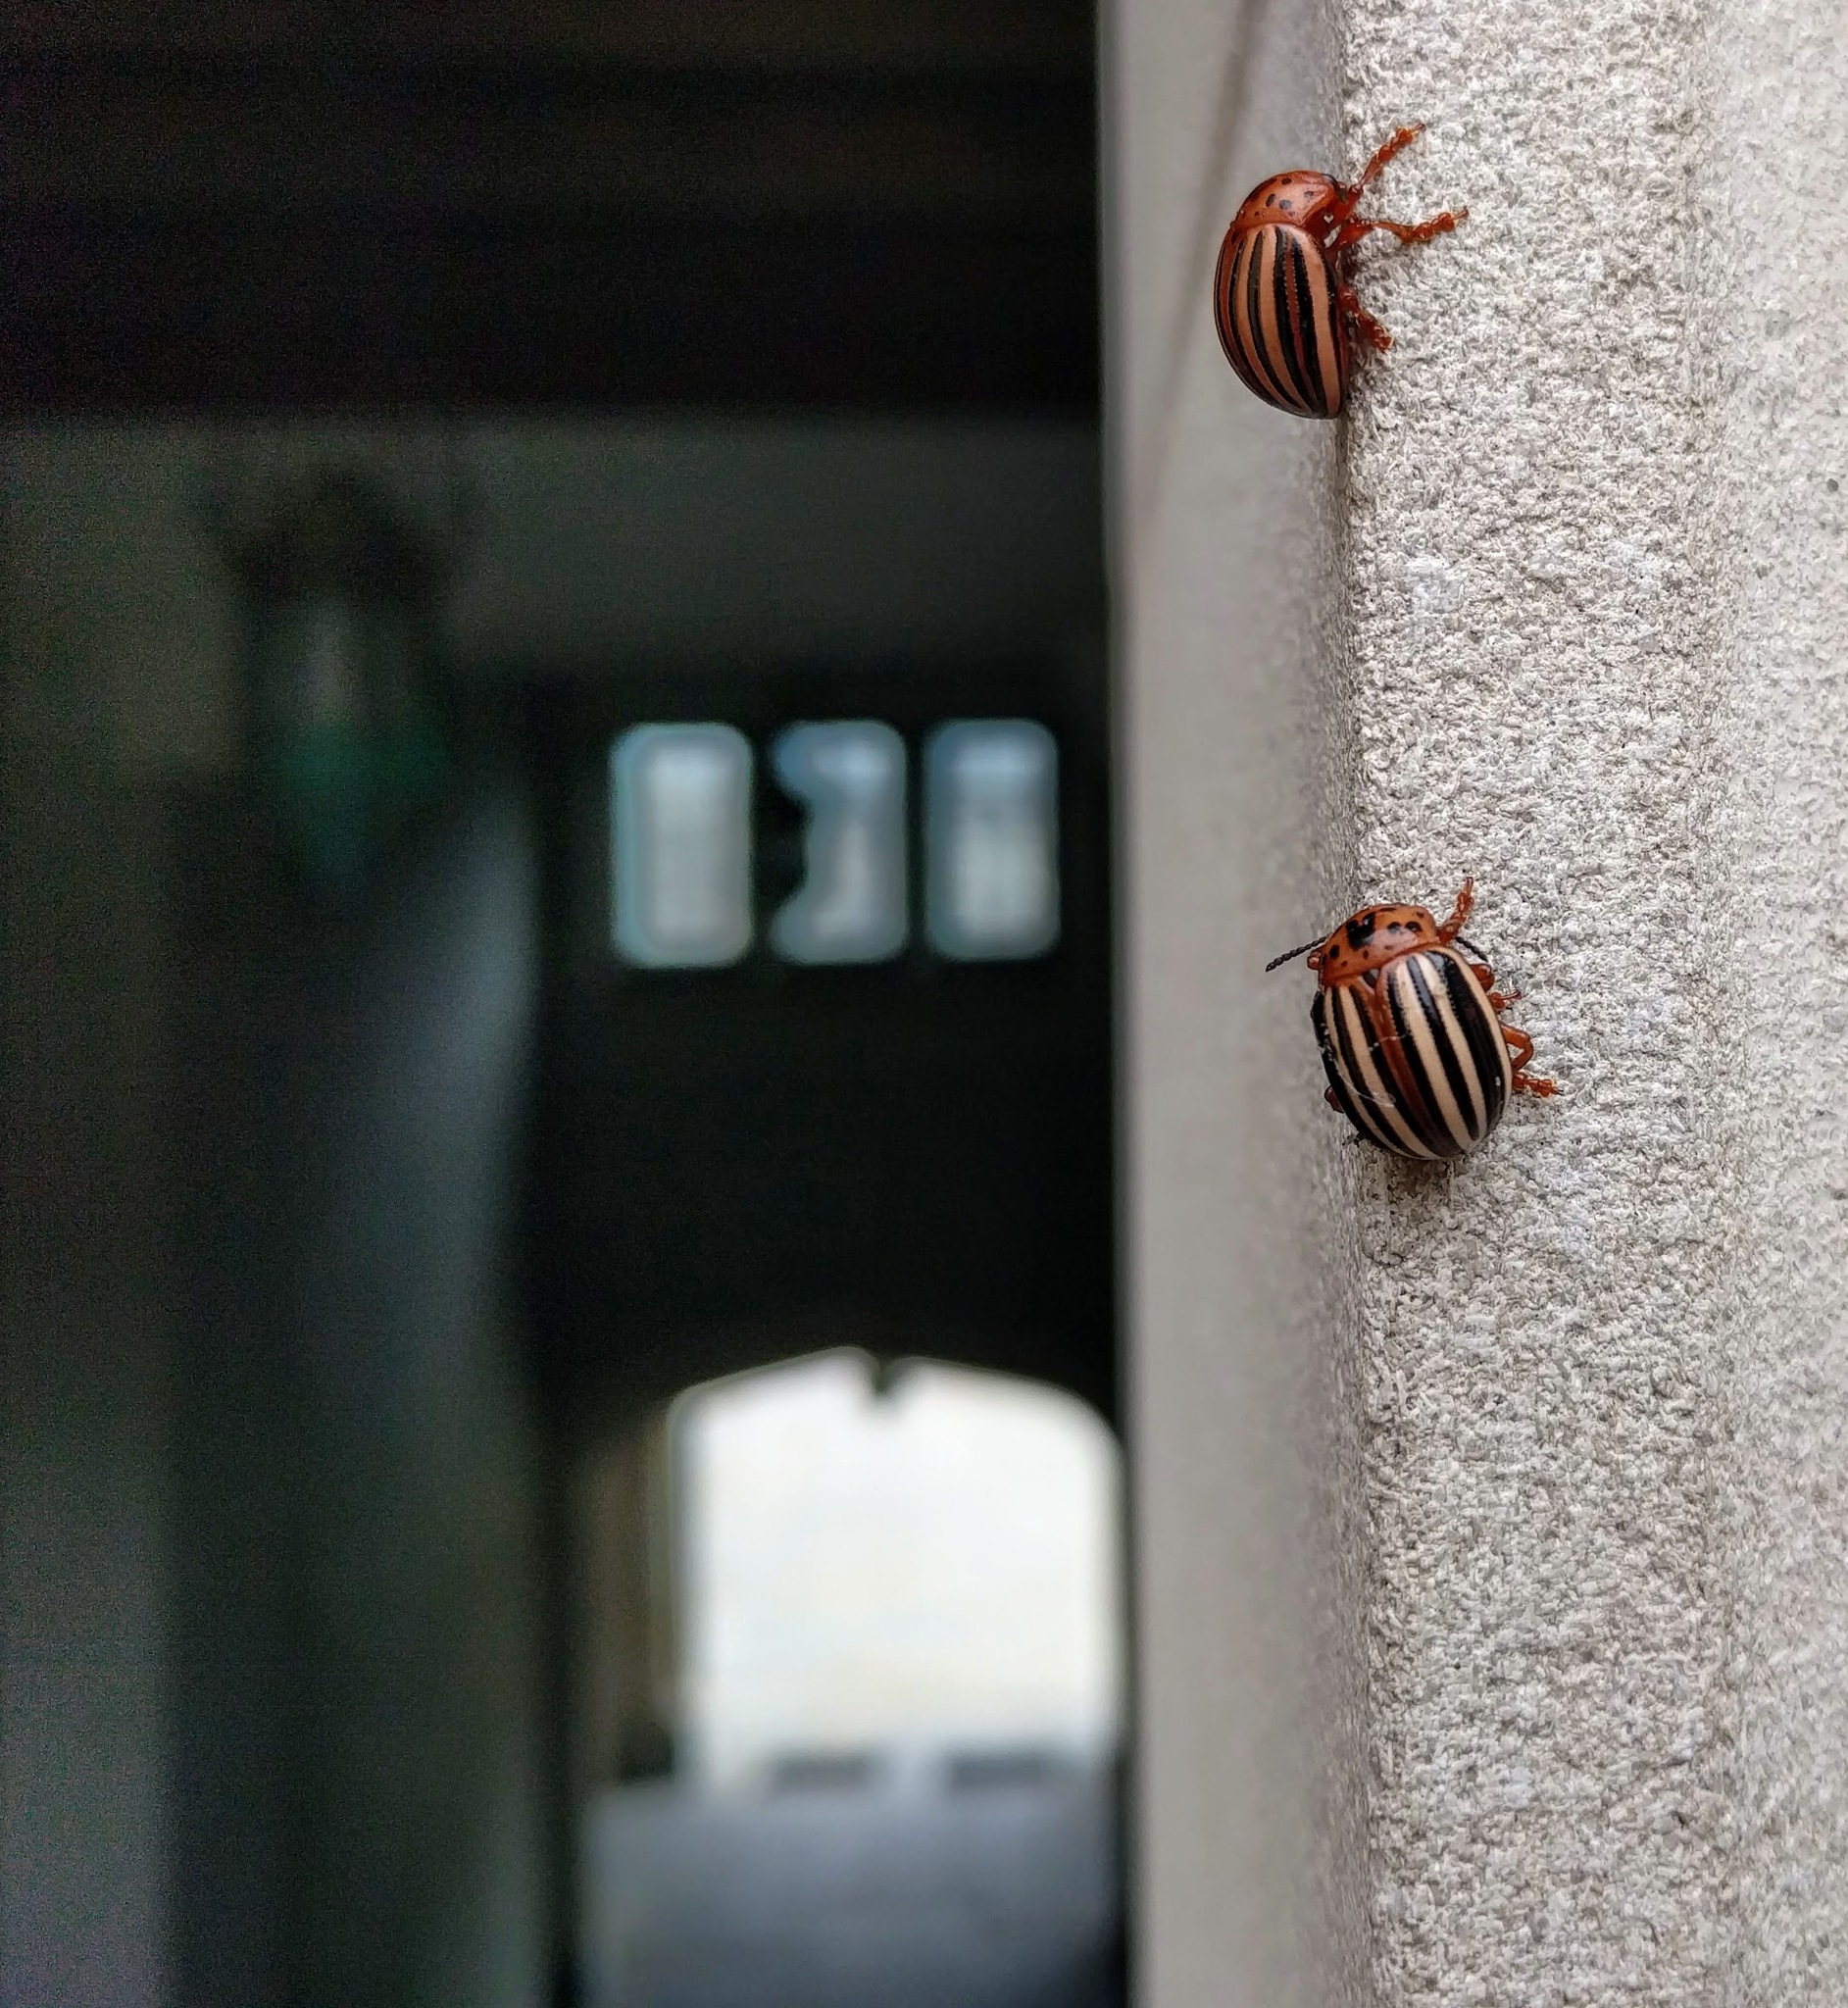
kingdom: Animalia
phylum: Arthropoda
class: Insecta
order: Coleoptera
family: Chrysomelidae
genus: Leptinotarsa
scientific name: Leptinotarsa juncta
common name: False potato beetle
